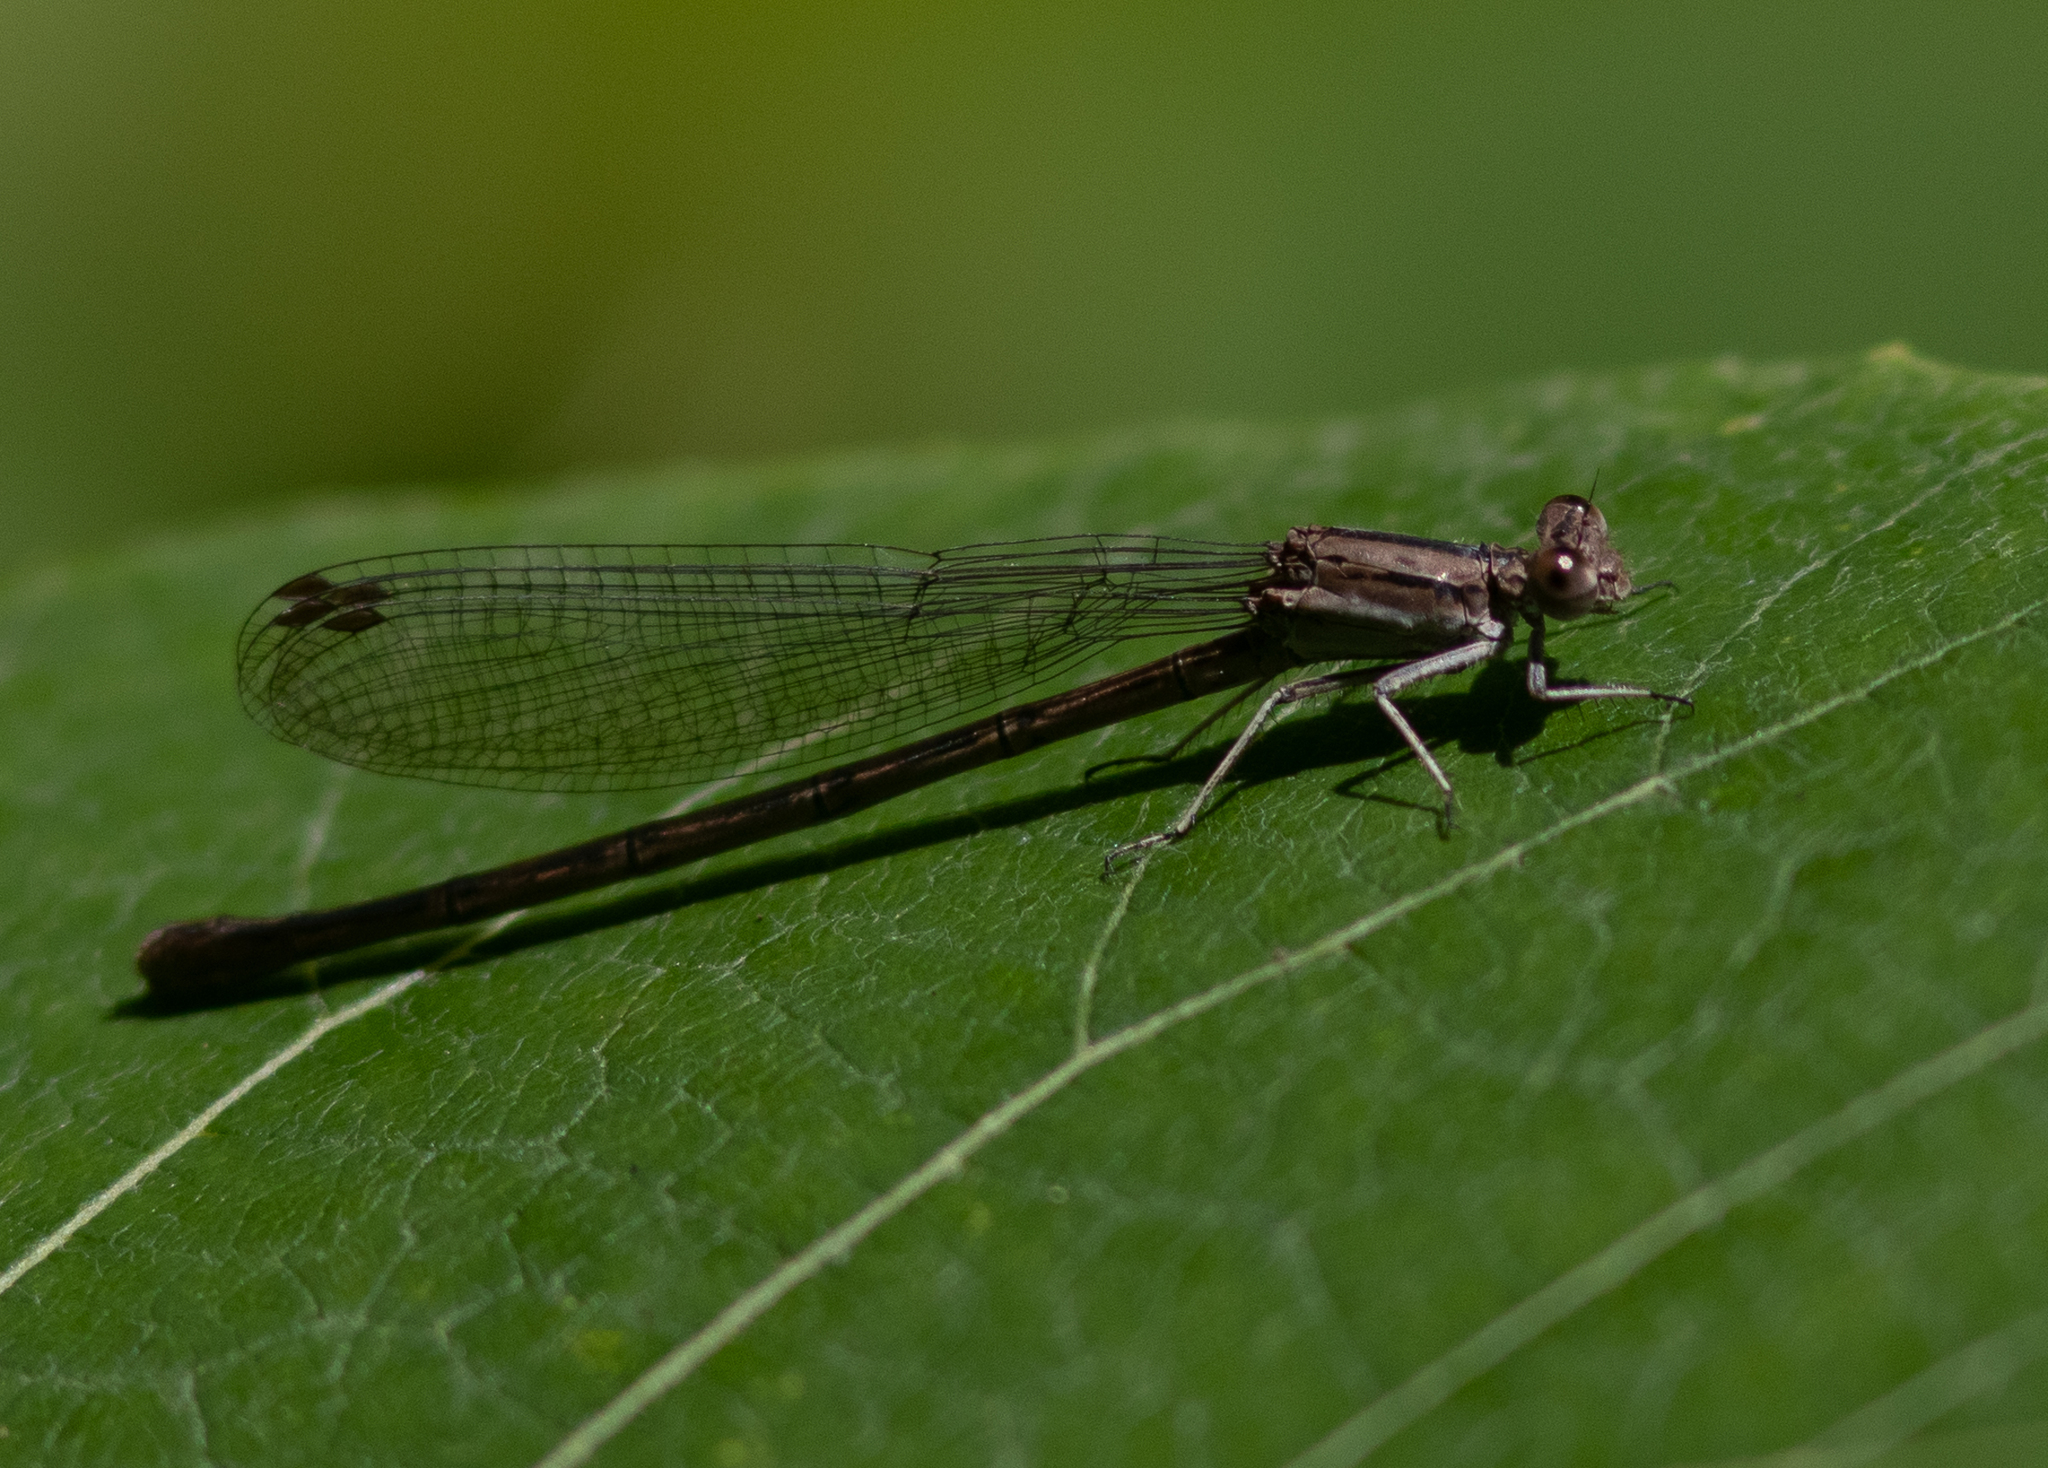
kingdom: Animalia
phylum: Arthropoda
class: Insecta
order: Odonata
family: Coenagrionidae
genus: Argia
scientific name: Argia fumipennis
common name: Variable dancer
